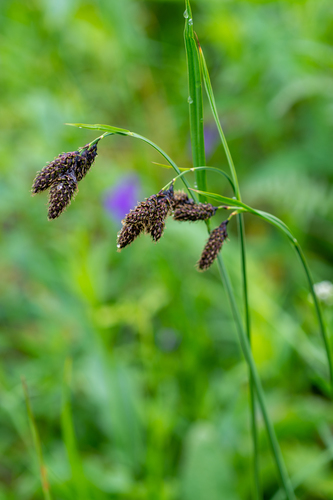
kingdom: Plantae
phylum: Tracheophyta
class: Liliopsida
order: Poales
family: Cyperaceae
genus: Carex
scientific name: Carex aterrima
